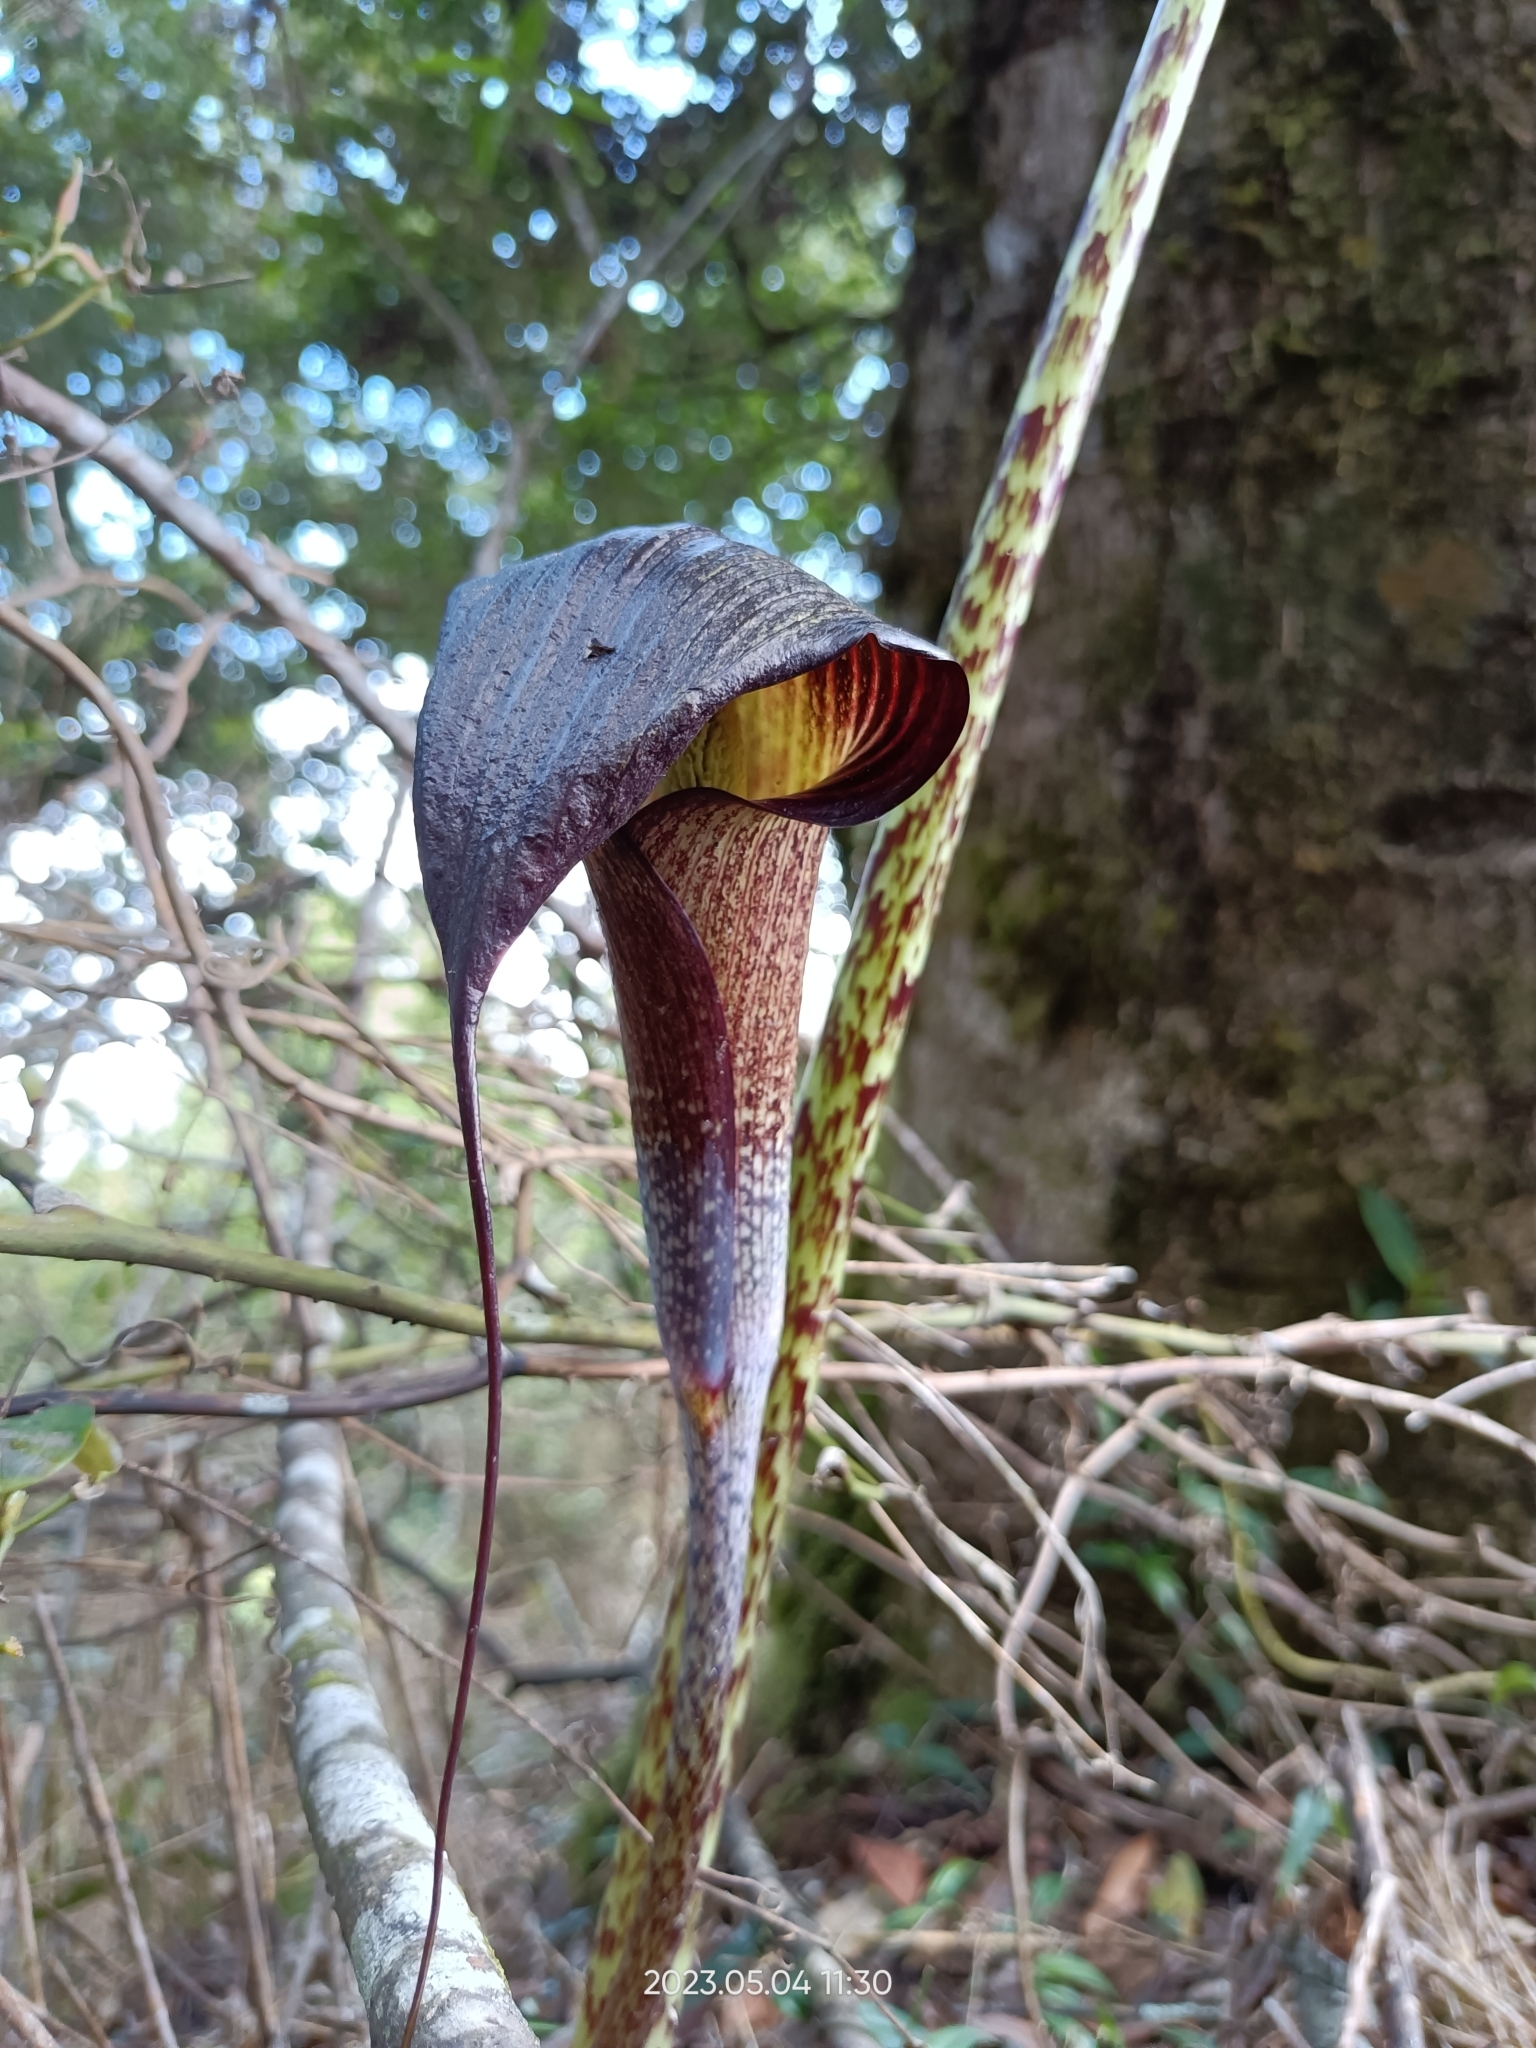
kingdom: Plantae
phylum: Tracheophyta
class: Liliopsida
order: Alismatales
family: Araceae
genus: Arisaema
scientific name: Arisaema consanguineum
